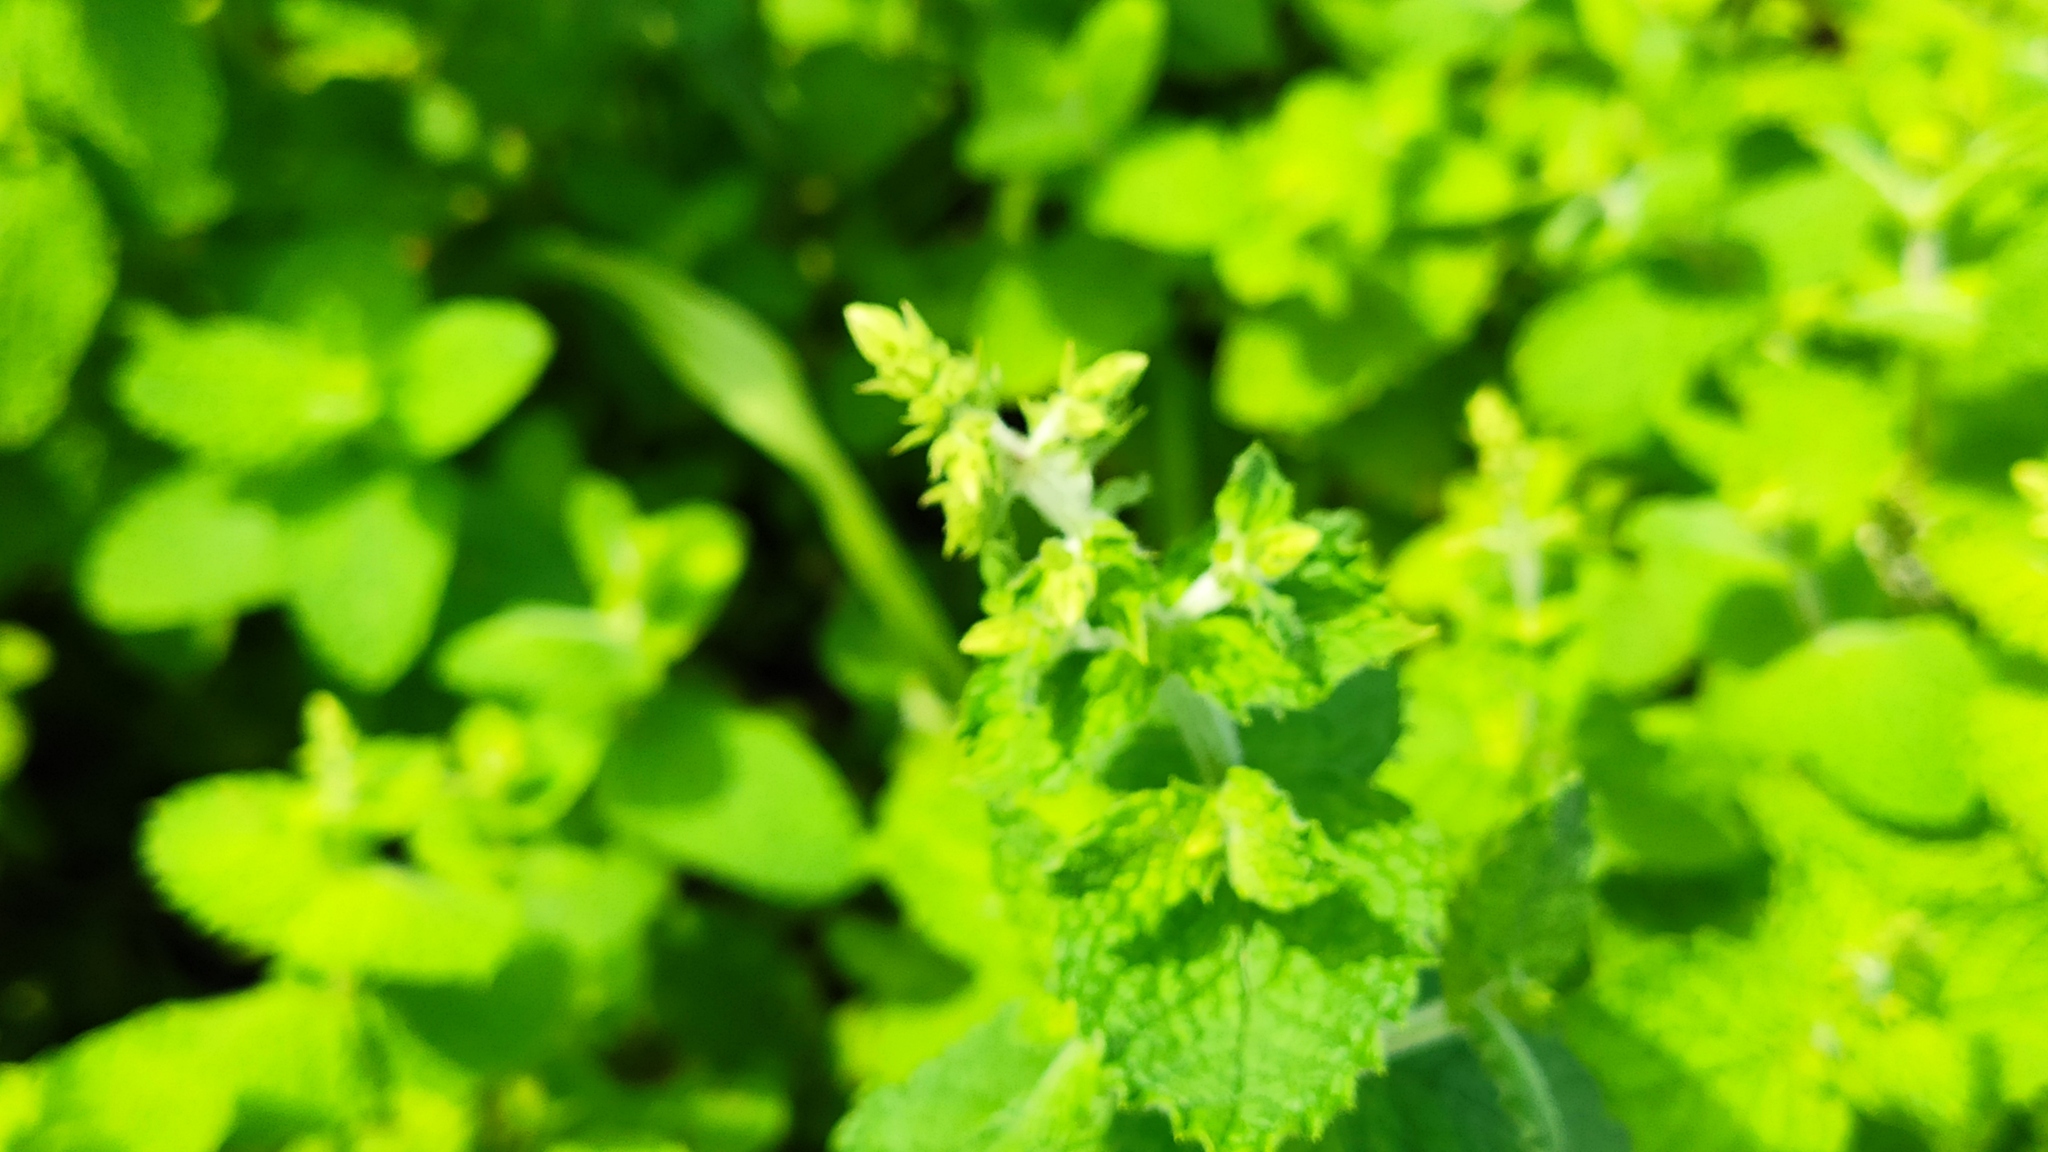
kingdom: Plantae
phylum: Tracheophyta
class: Magnoliopsida
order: Lamiales
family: Lamiaceae
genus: Mentha
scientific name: Mentha suaveolens
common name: Apple mint
